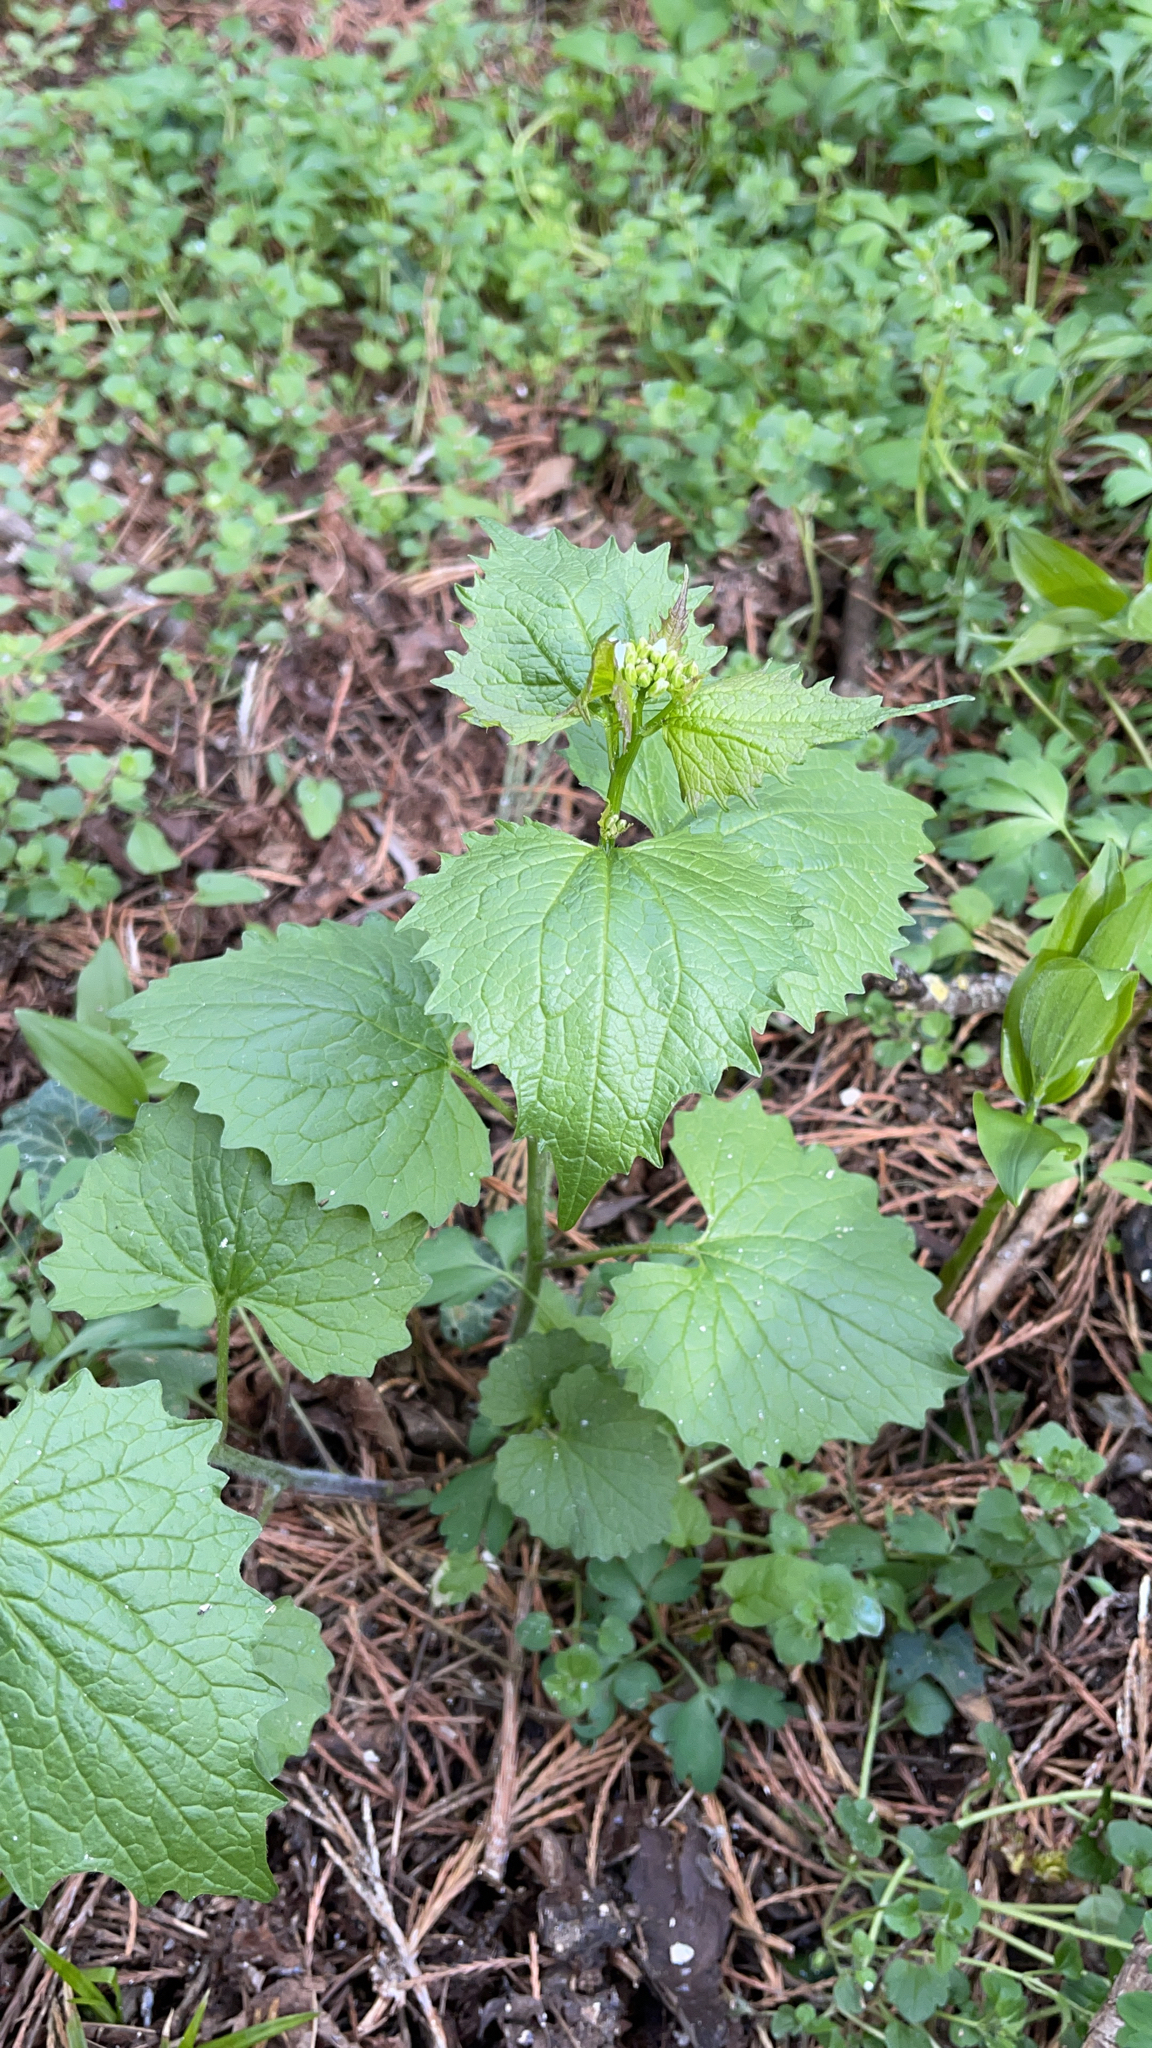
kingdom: Plantae
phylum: Tracheophyta
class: Magnoliopsida
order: Brassicales
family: Brassicaceae
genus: Alliaria
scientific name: Alliaria petiolata
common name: Garlic mustard
